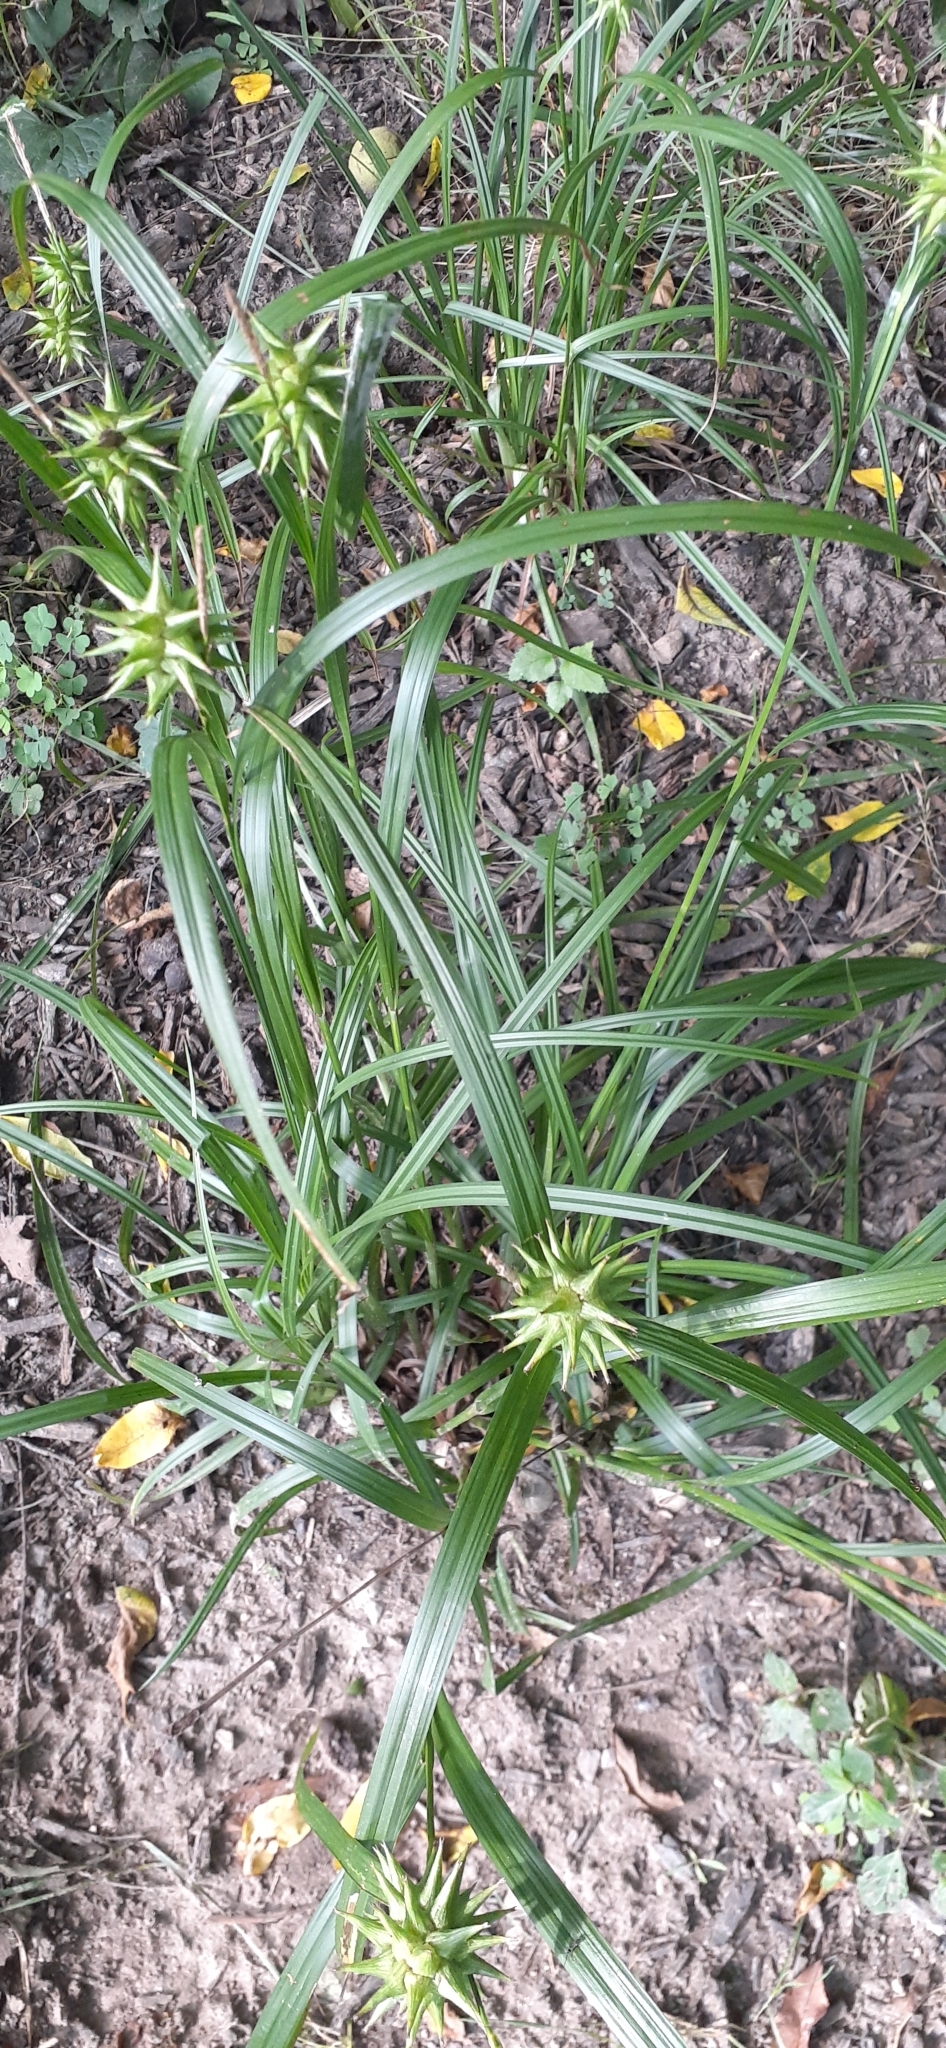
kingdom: Plantae
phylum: Tracheophyta
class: Liliopsida
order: Poales
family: Cyperaceae
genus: Carex
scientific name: Carex grayi
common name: Asa gray's sedge
